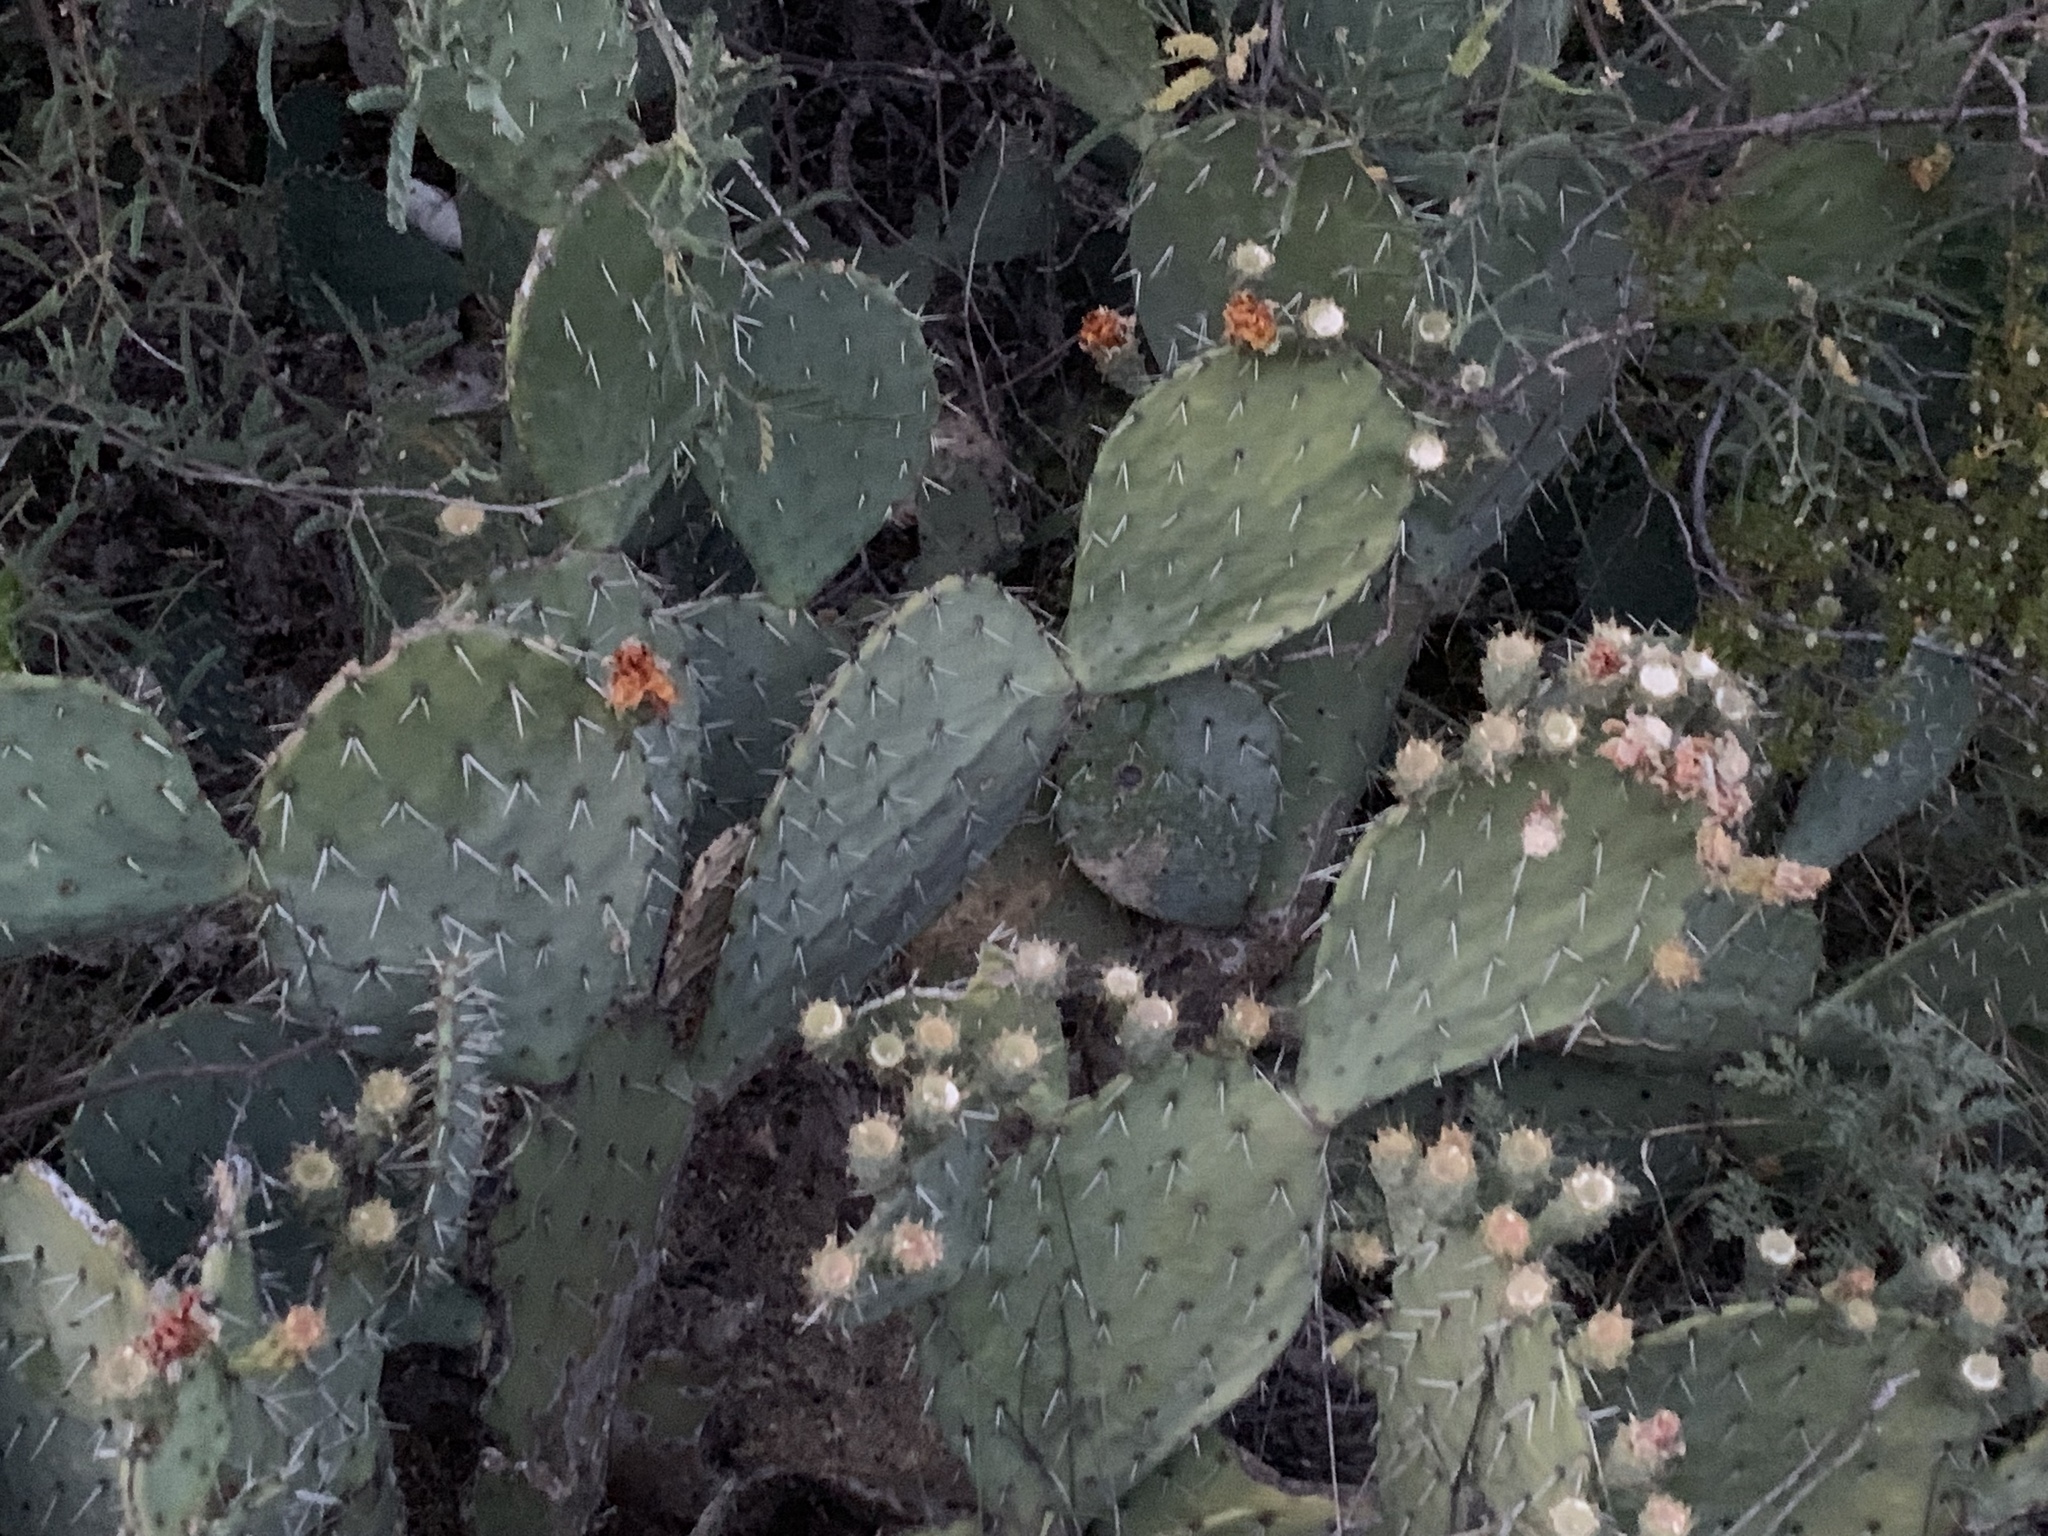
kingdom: Plantae
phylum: Tracheophyta
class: Magnoliopsida
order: Caryophyllales
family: Cactaceae
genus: Opuntia
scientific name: Opuntia engelmannii
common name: Cactus-apple
